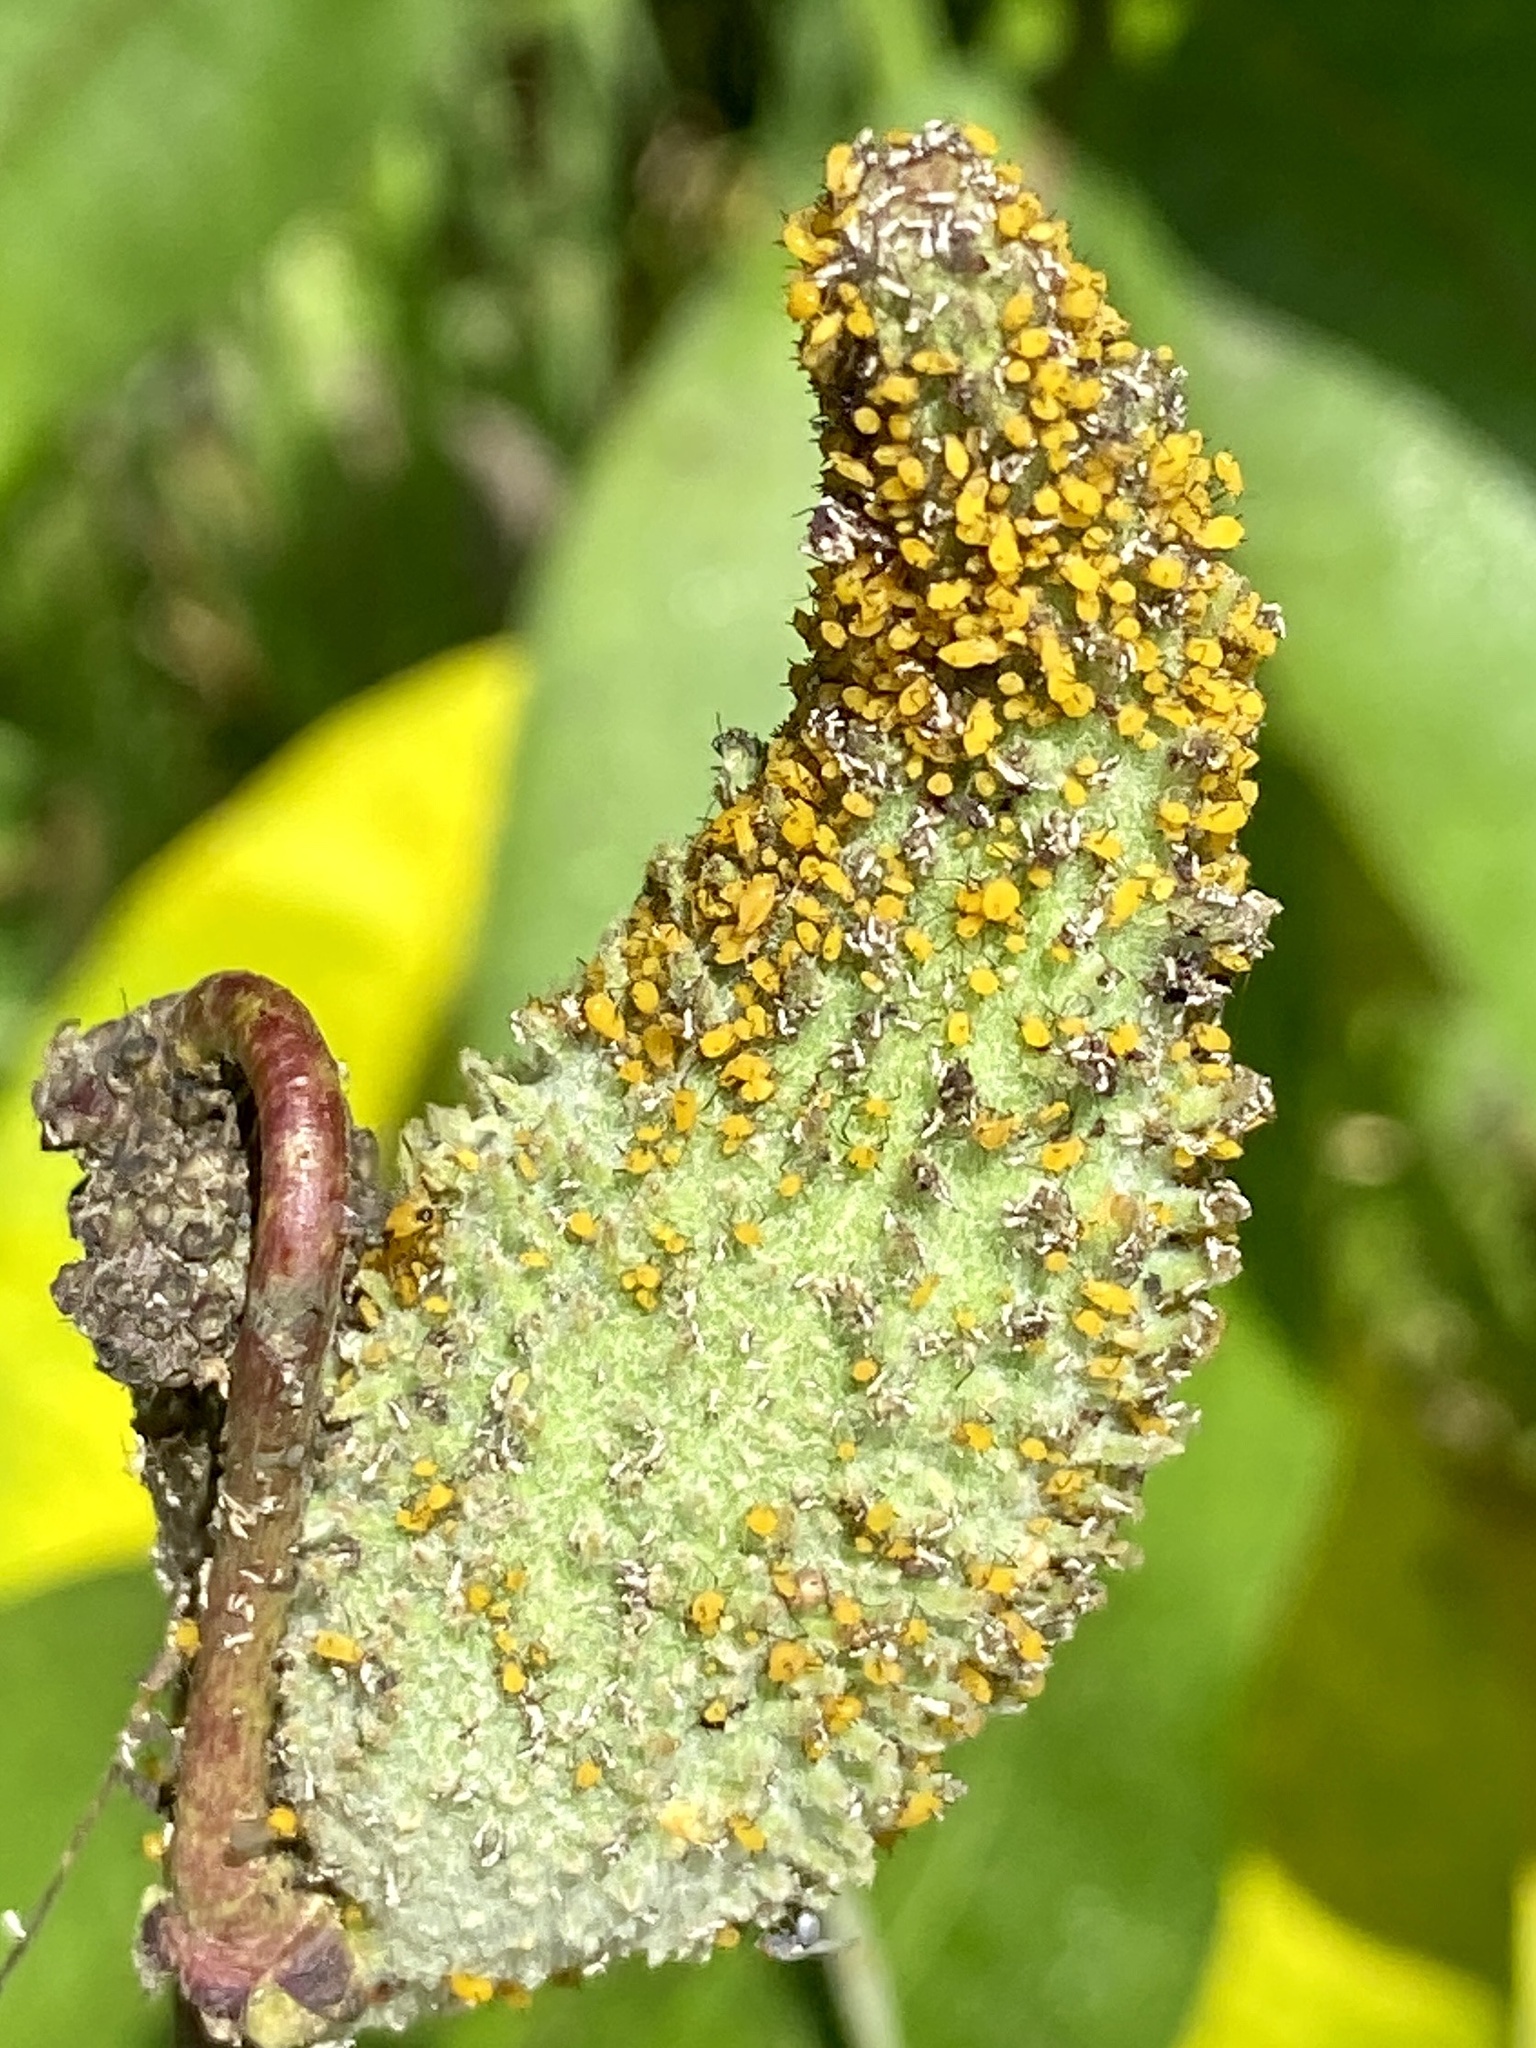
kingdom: Animalia
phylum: Arthropoda
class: Insecta
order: Hemiptera
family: Aphididae
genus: Aphis
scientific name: Aphis nerii
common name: Oleander aphid
